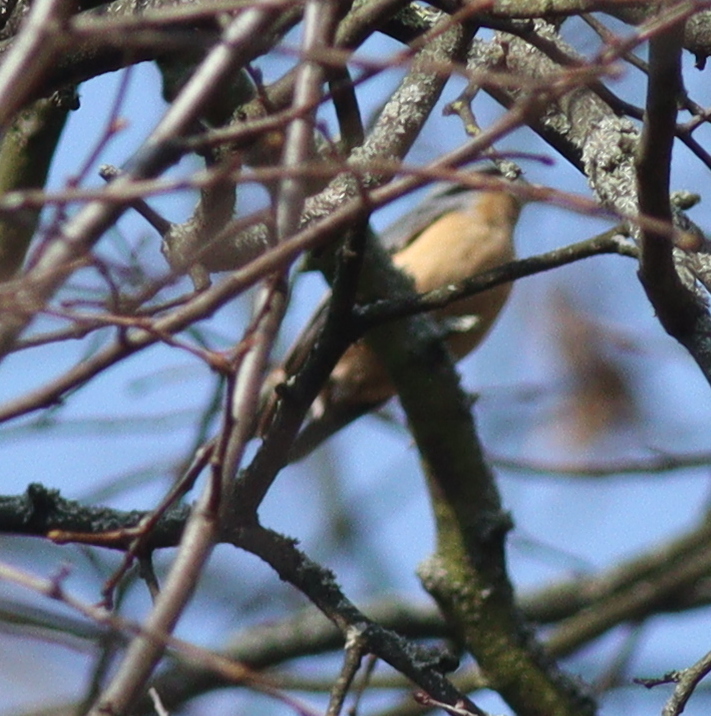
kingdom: Animalia
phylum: Chordata
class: Aves
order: Passeriformes
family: Sittidae
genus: Sitta
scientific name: Sitta europaea
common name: Eurasian nuthatch
